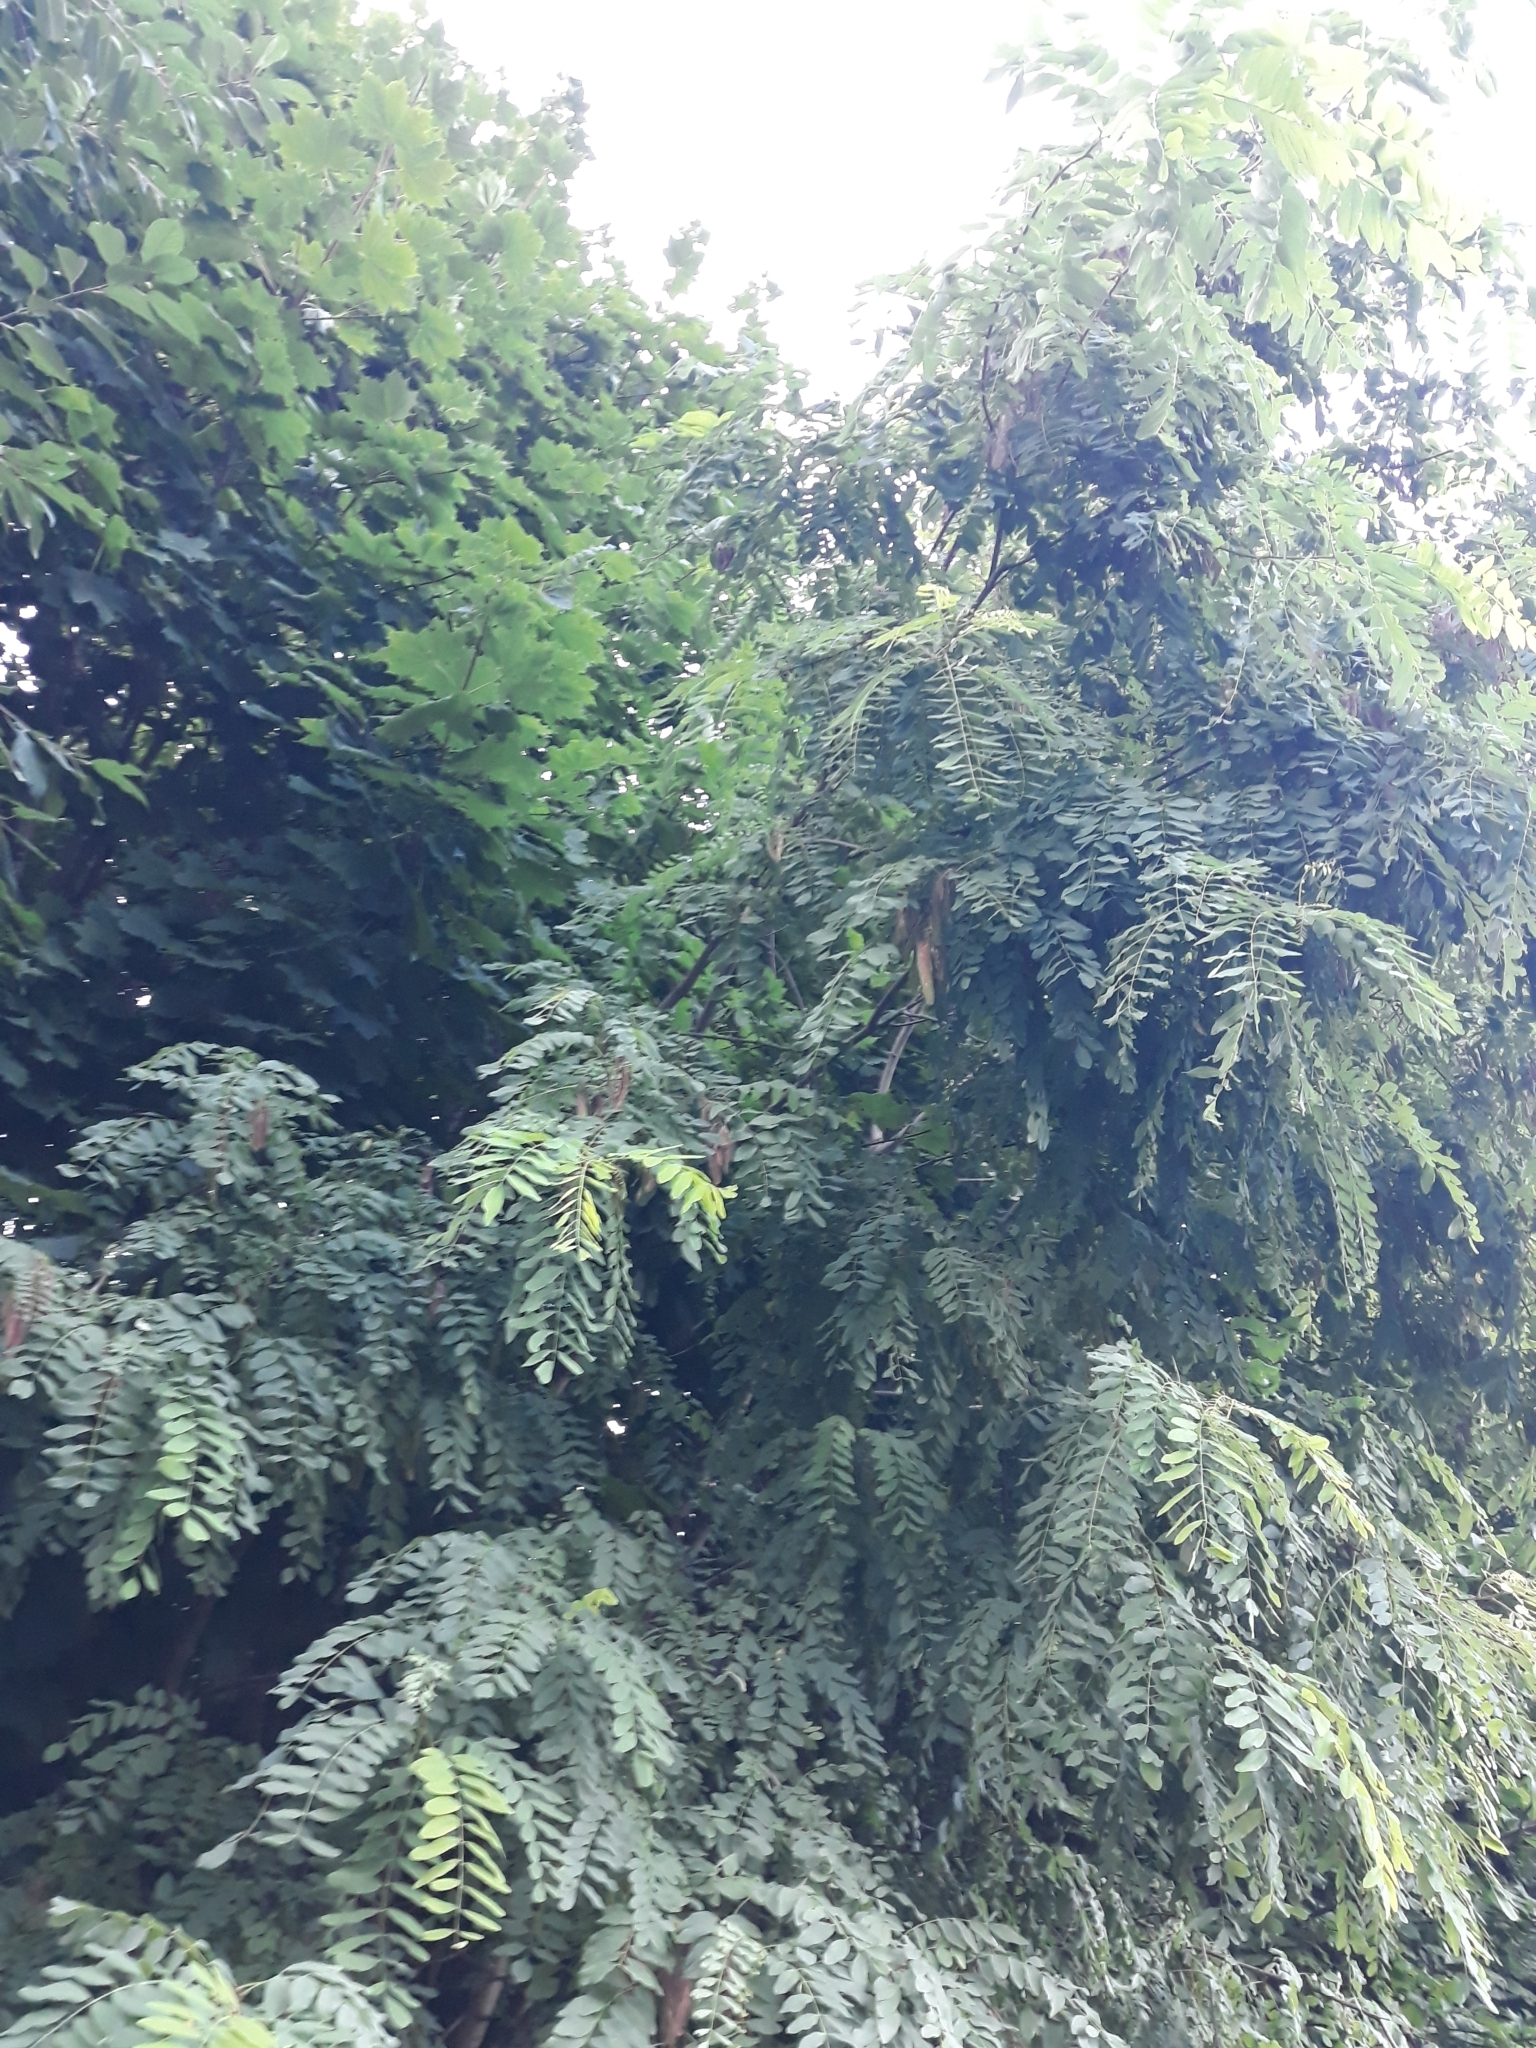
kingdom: Plantae
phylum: Tracheophyta
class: Magnoliopsida
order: Fabales
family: Fabaceae
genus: Robinia
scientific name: Robinia pseudoacacia
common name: Black locust
